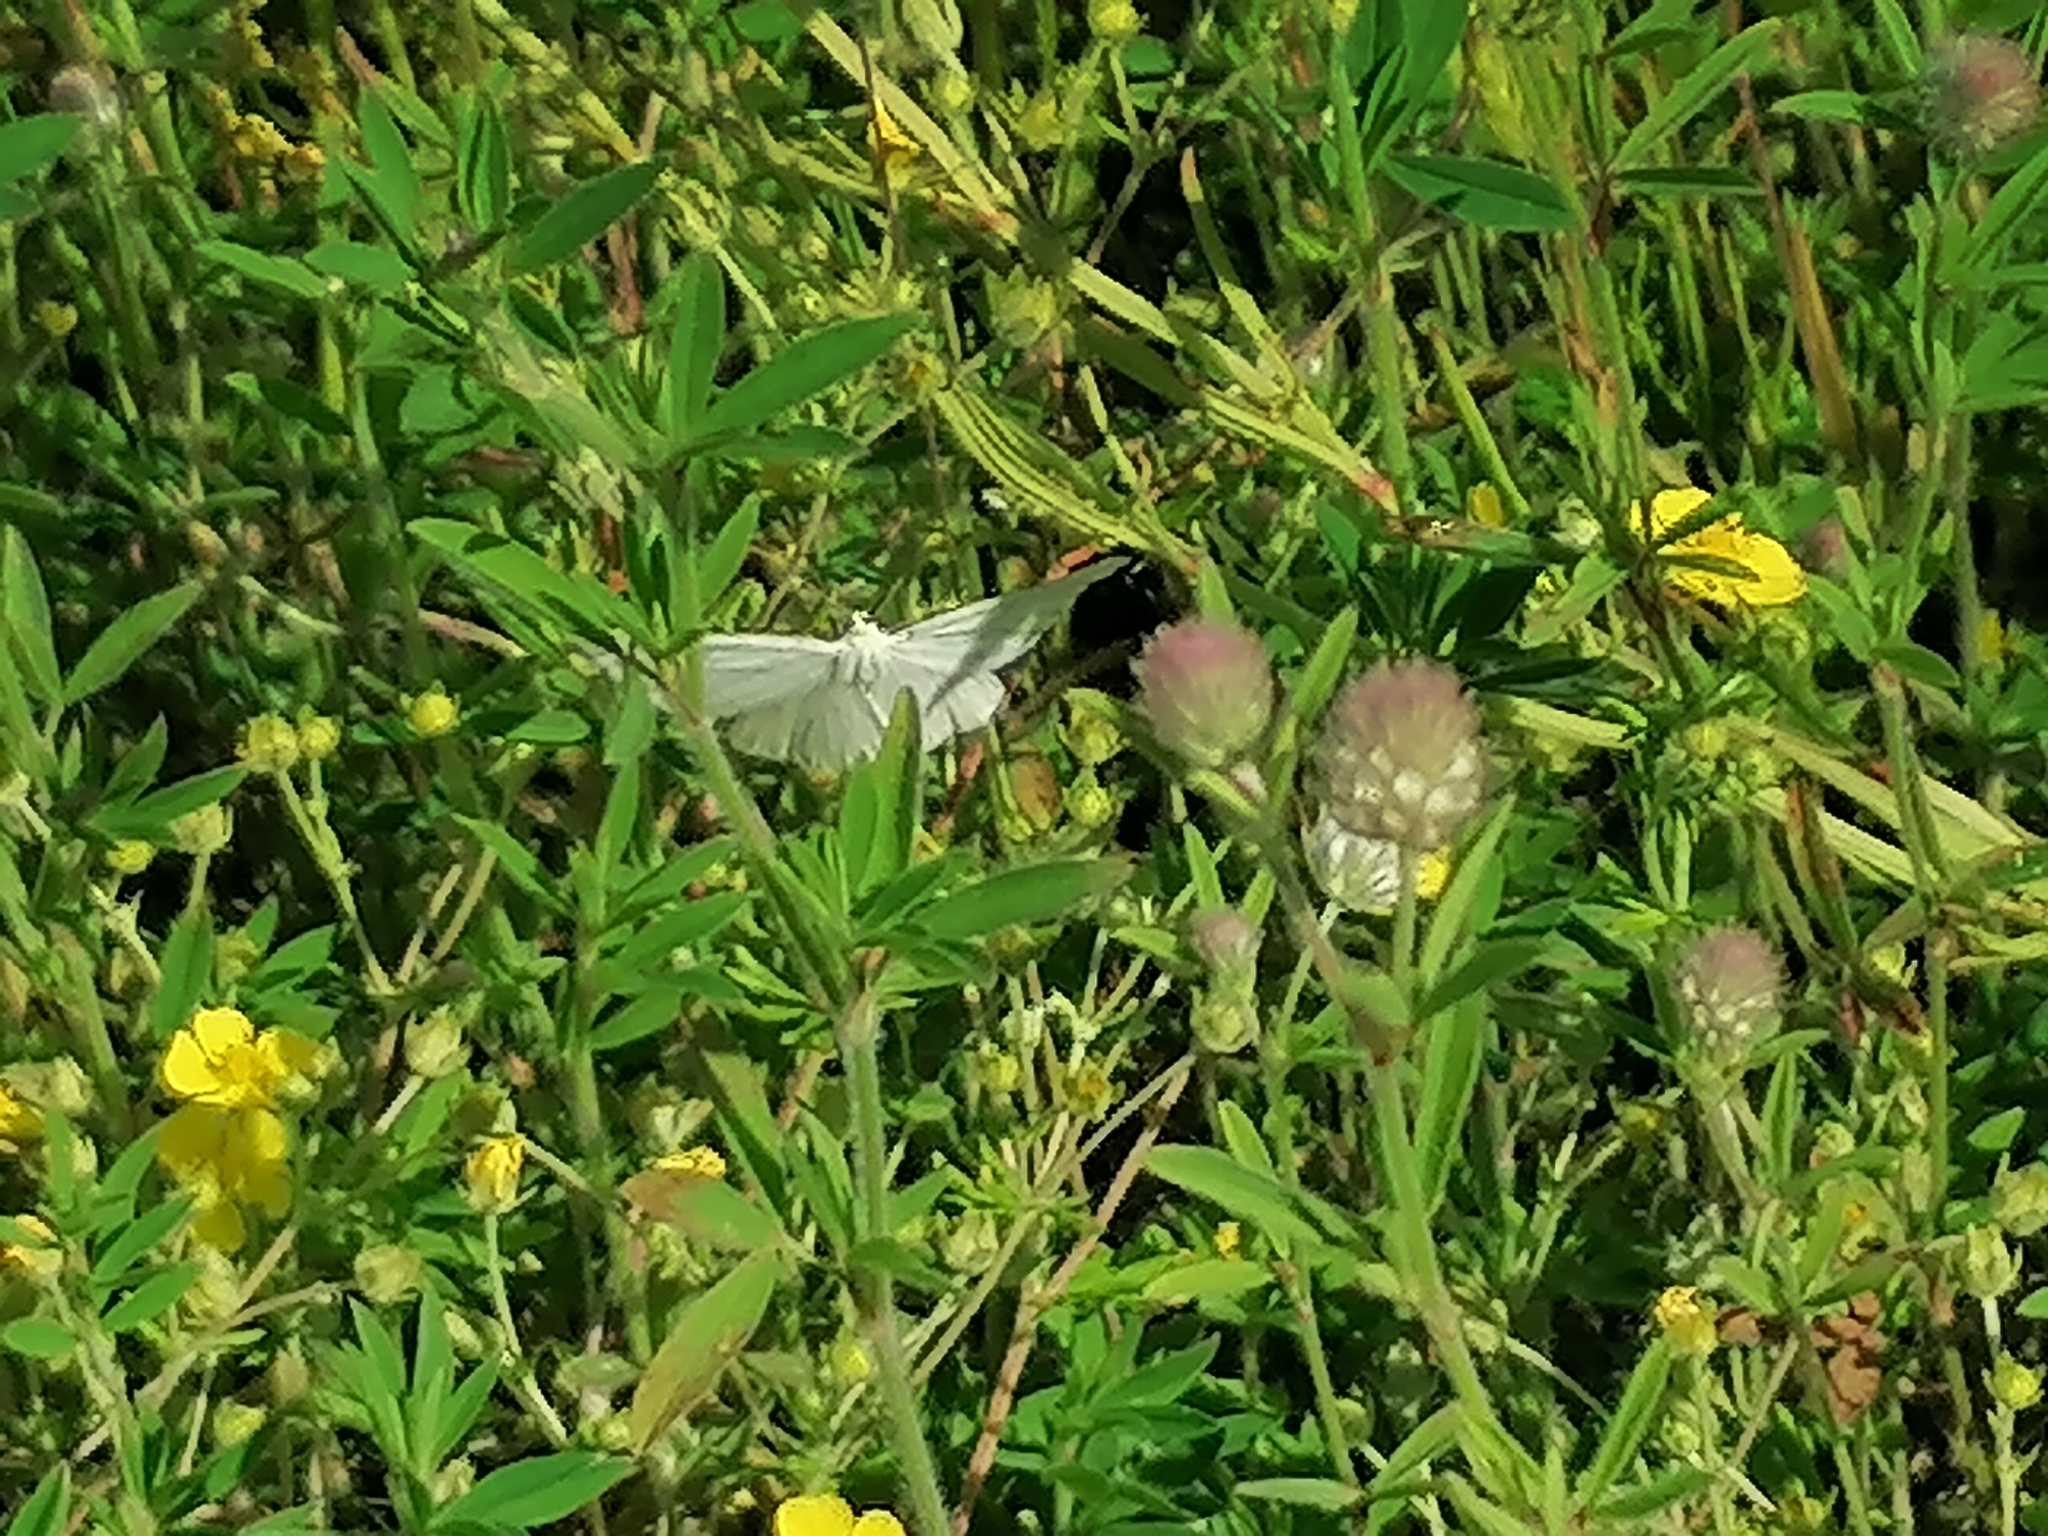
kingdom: Plantae
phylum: Tracheophyta
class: Magnoliopsida
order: Fabales
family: Fabaceae
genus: Trifolium
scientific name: Trifolium arvense
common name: Hare's-foot clover
